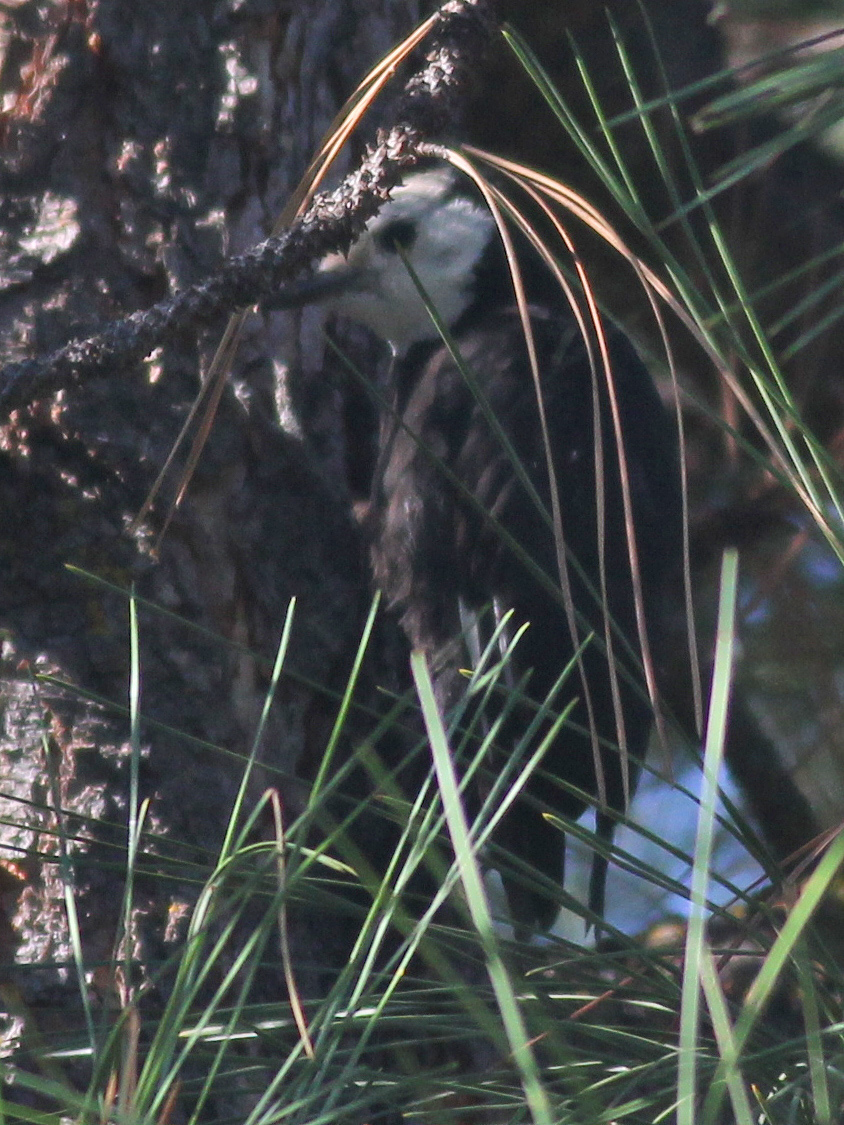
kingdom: Animalia
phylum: Chordata
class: Aves
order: Piciformes
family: Picidae
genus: Leuconotopicus
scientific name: Leuconotopicus albolarvatus
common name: White-headed woodpecker
